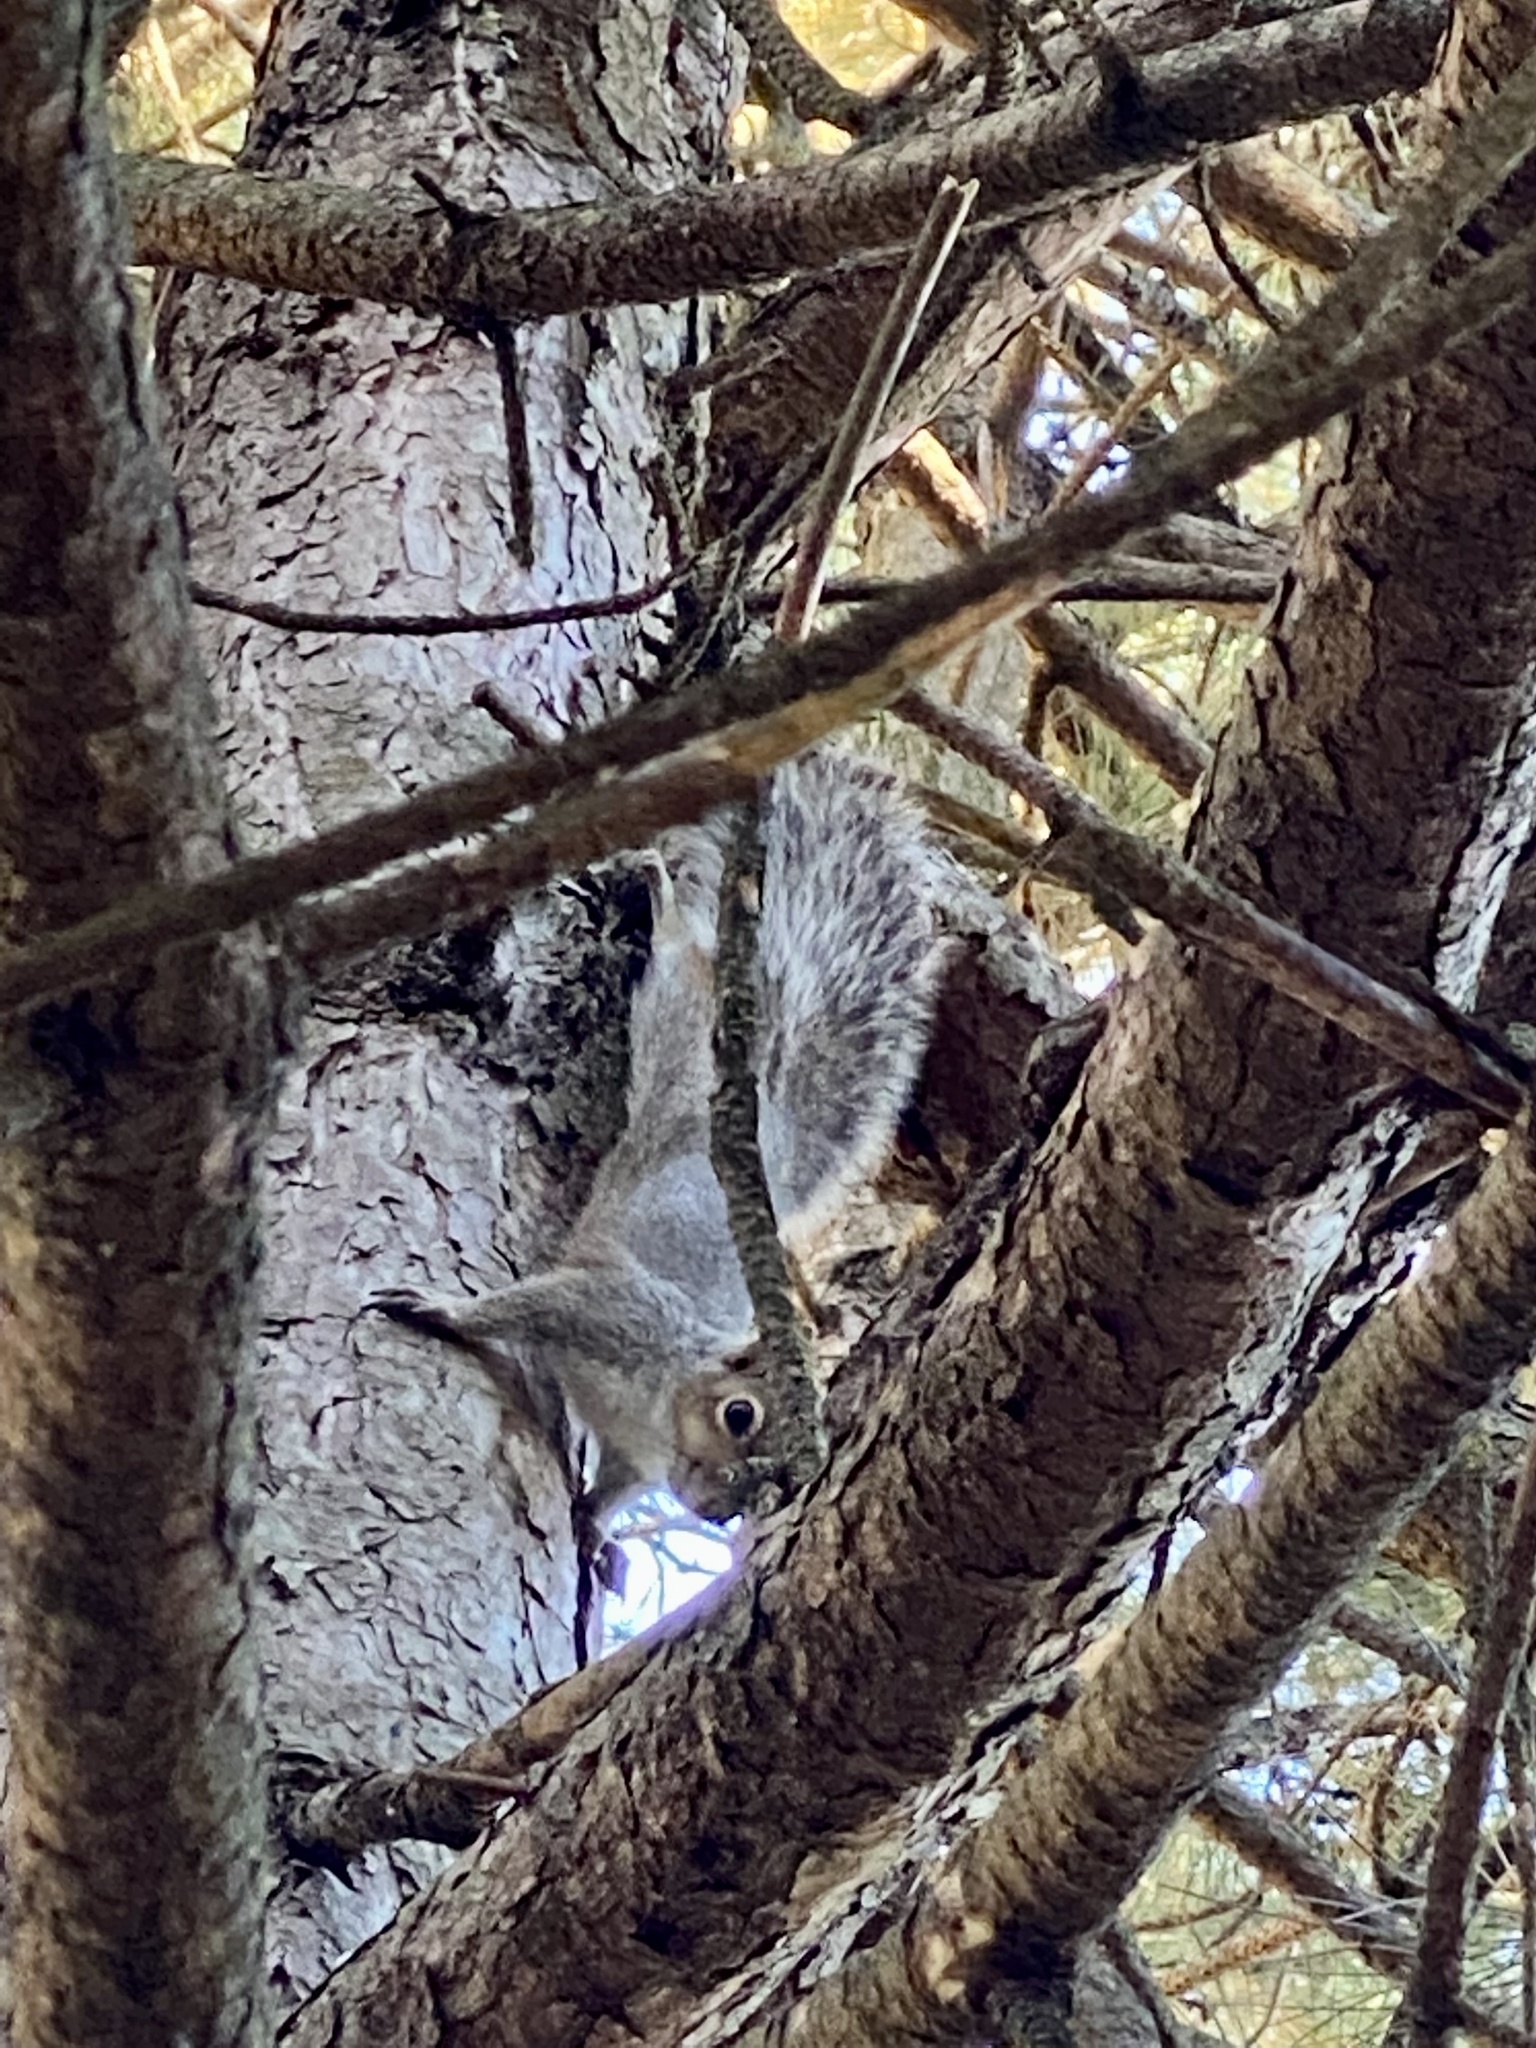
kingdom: Animalia
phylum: Chordata
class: Mammalia
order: Rodentia
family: Sciuridae
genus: Sciurus
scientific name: Sciurus carolinensis
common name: Eastern gray squirrel
